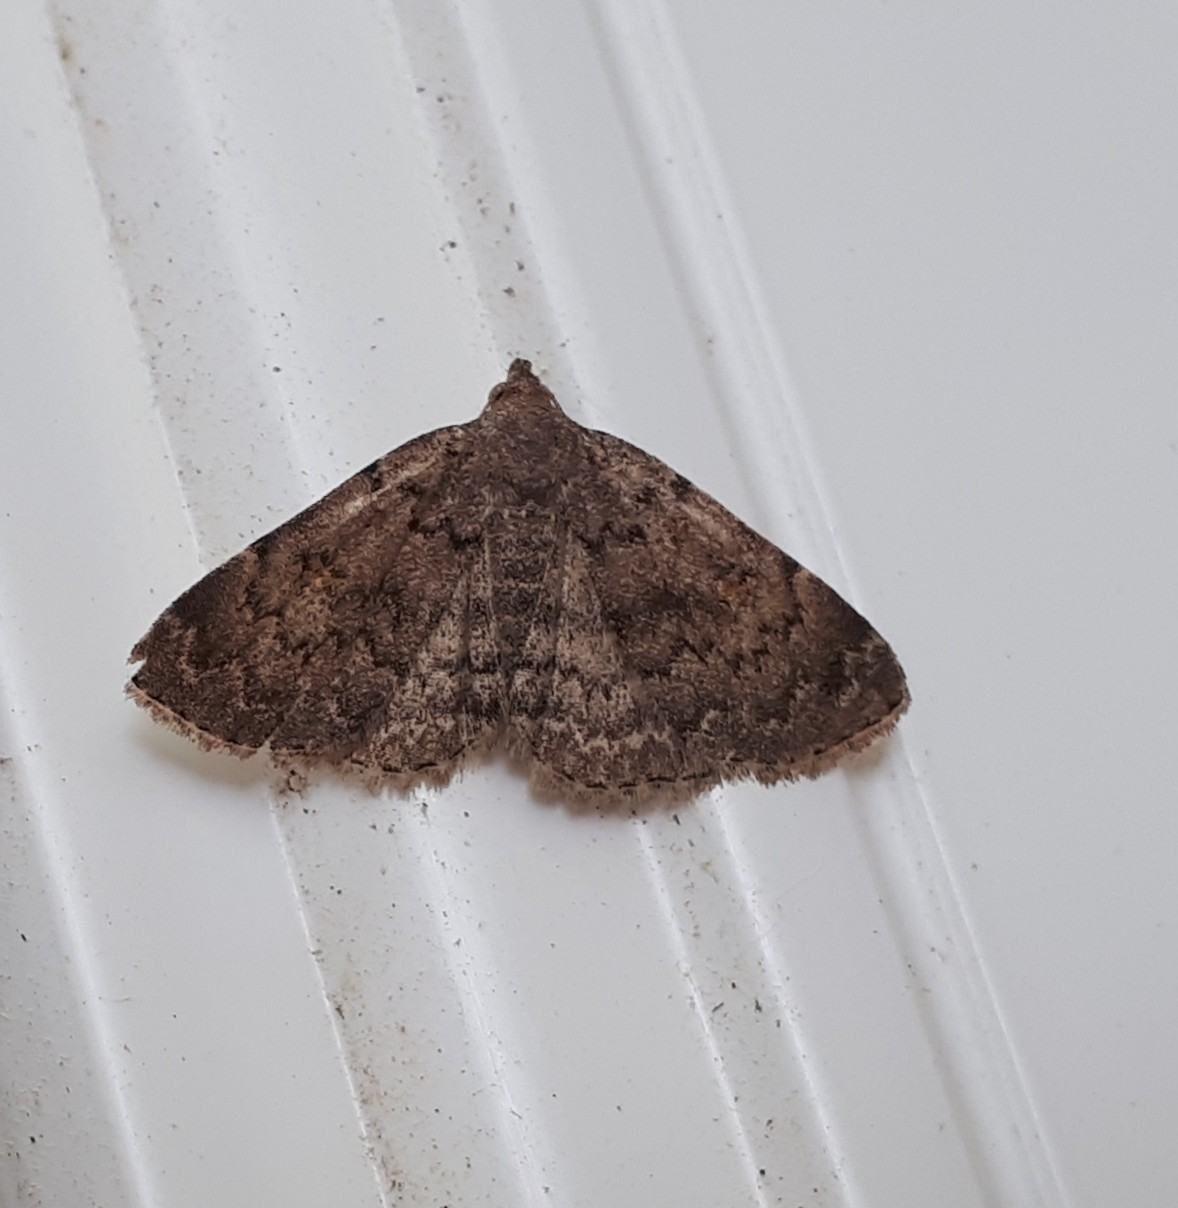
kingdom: Animalia
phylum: Arthropoda
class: Insecta
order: Lepidoptera
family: Erebidae
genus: Idia
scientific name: Idia aemula
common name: Common idia moth
